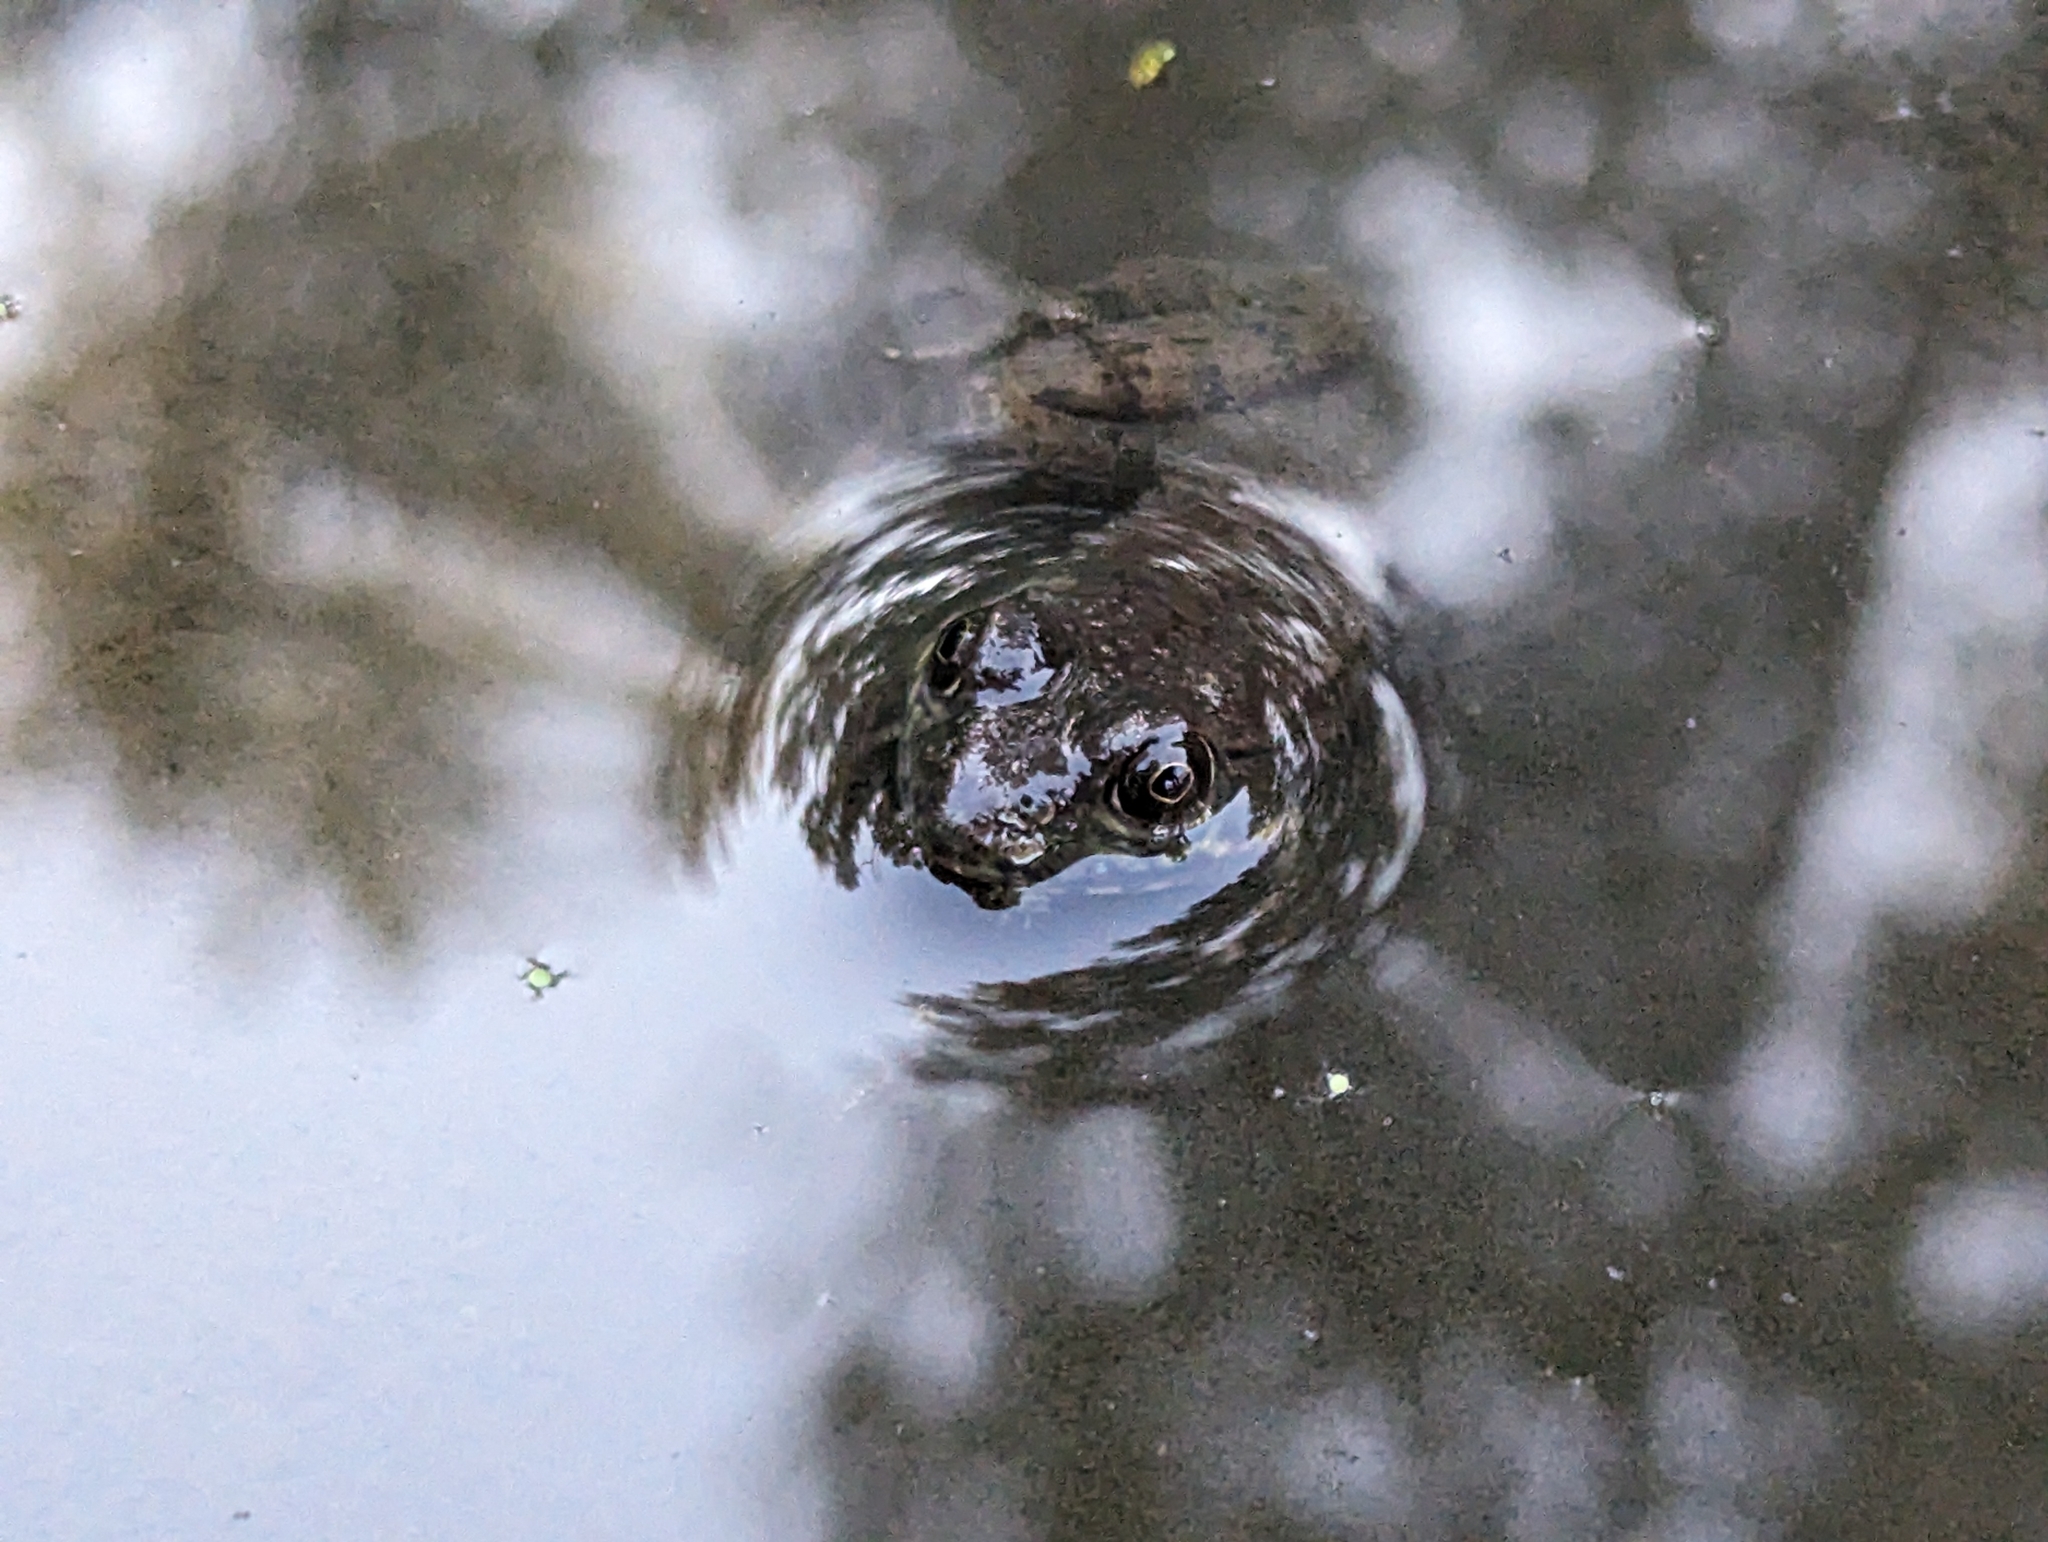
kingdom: Animalia
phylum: Chordata
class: Amphibia
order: Anura
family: Ranidae
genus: Lithobates
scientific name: Lithobates catesbeianus
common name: American bullfrog
